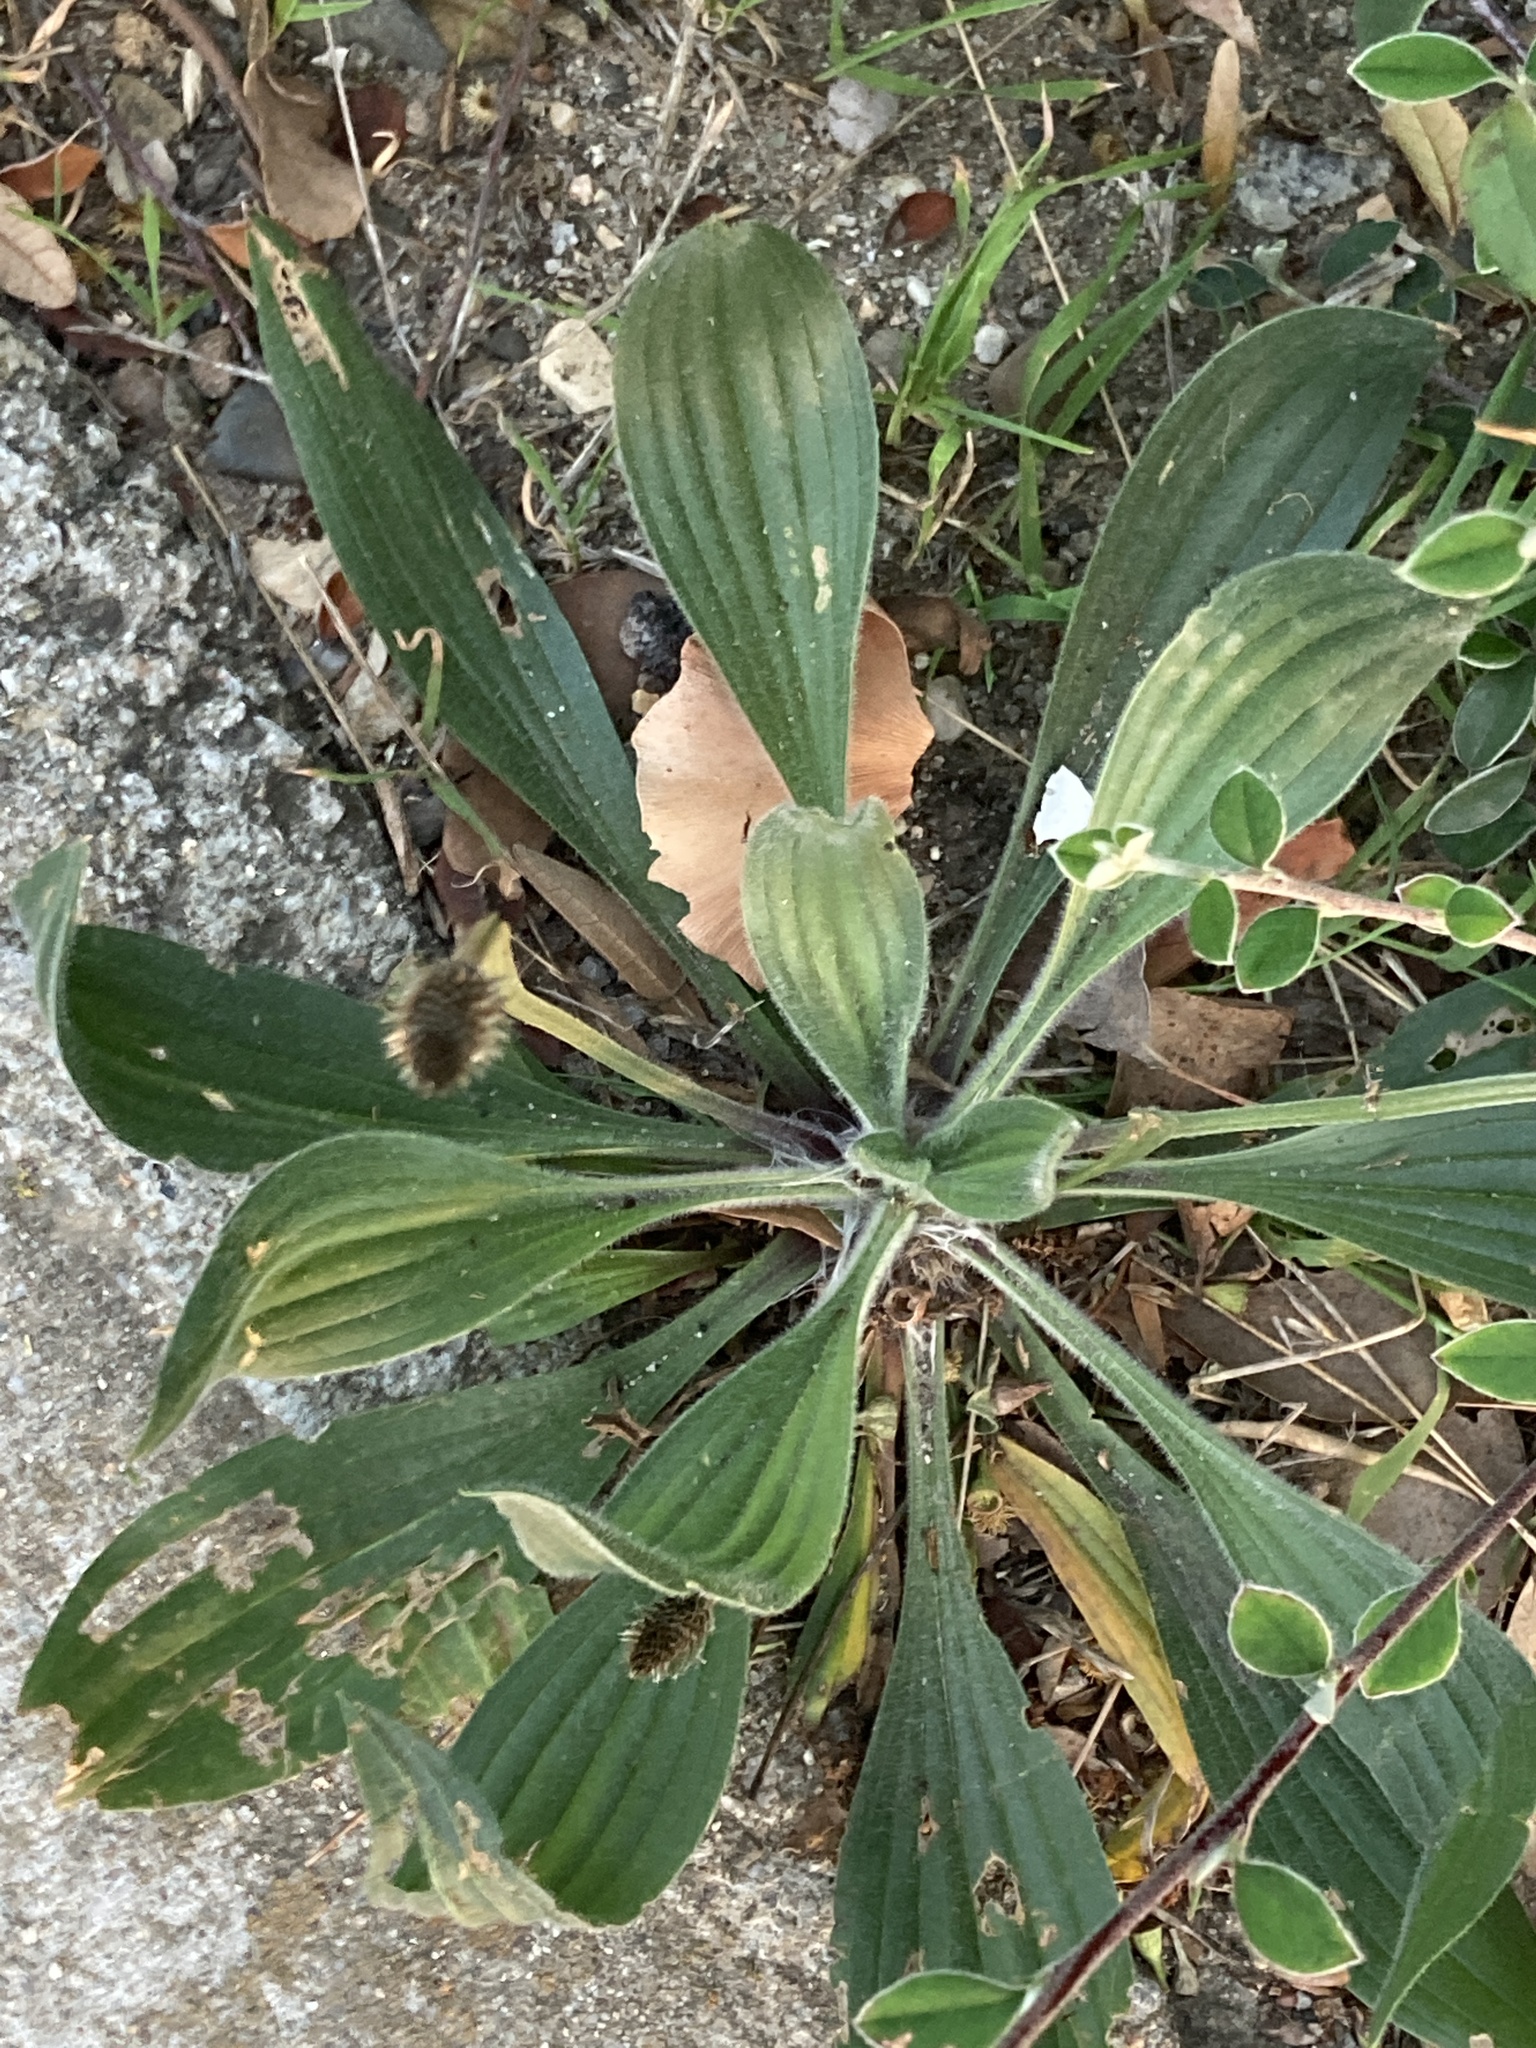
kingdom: Plantae
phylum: Tracheophyta
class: Magnoliopsida
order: Lamiales
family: Plantaginaceae
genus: Plantago
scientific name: Plantago lanceolata
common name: Ribwort plantain
